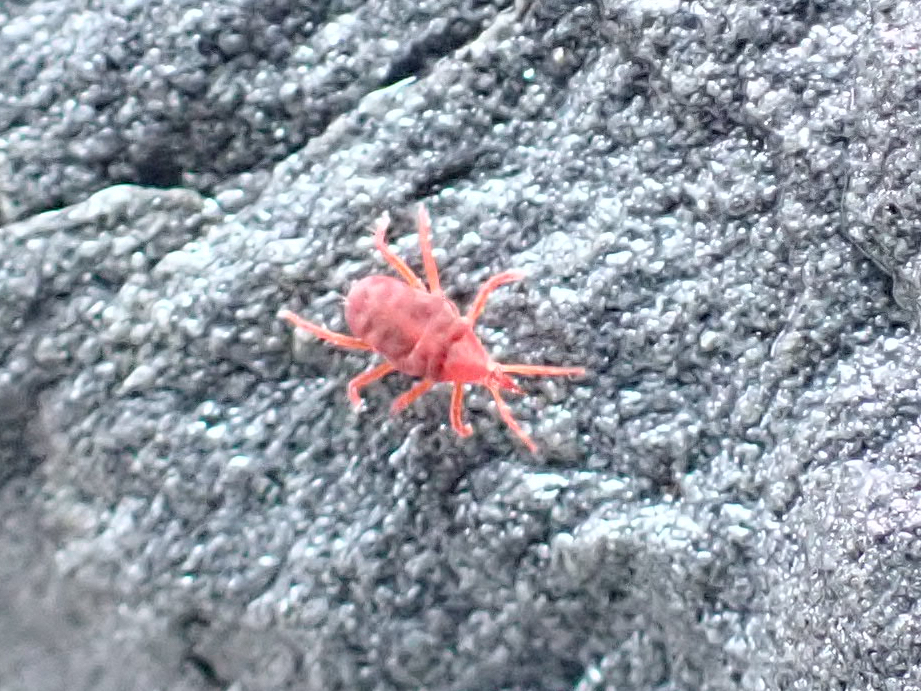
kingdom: Animalia
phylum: Arthropoda
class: Arachnida
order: Trombidiformes
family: Bdellidae
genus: Neomolgus
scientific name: Neomolgus littoralis
